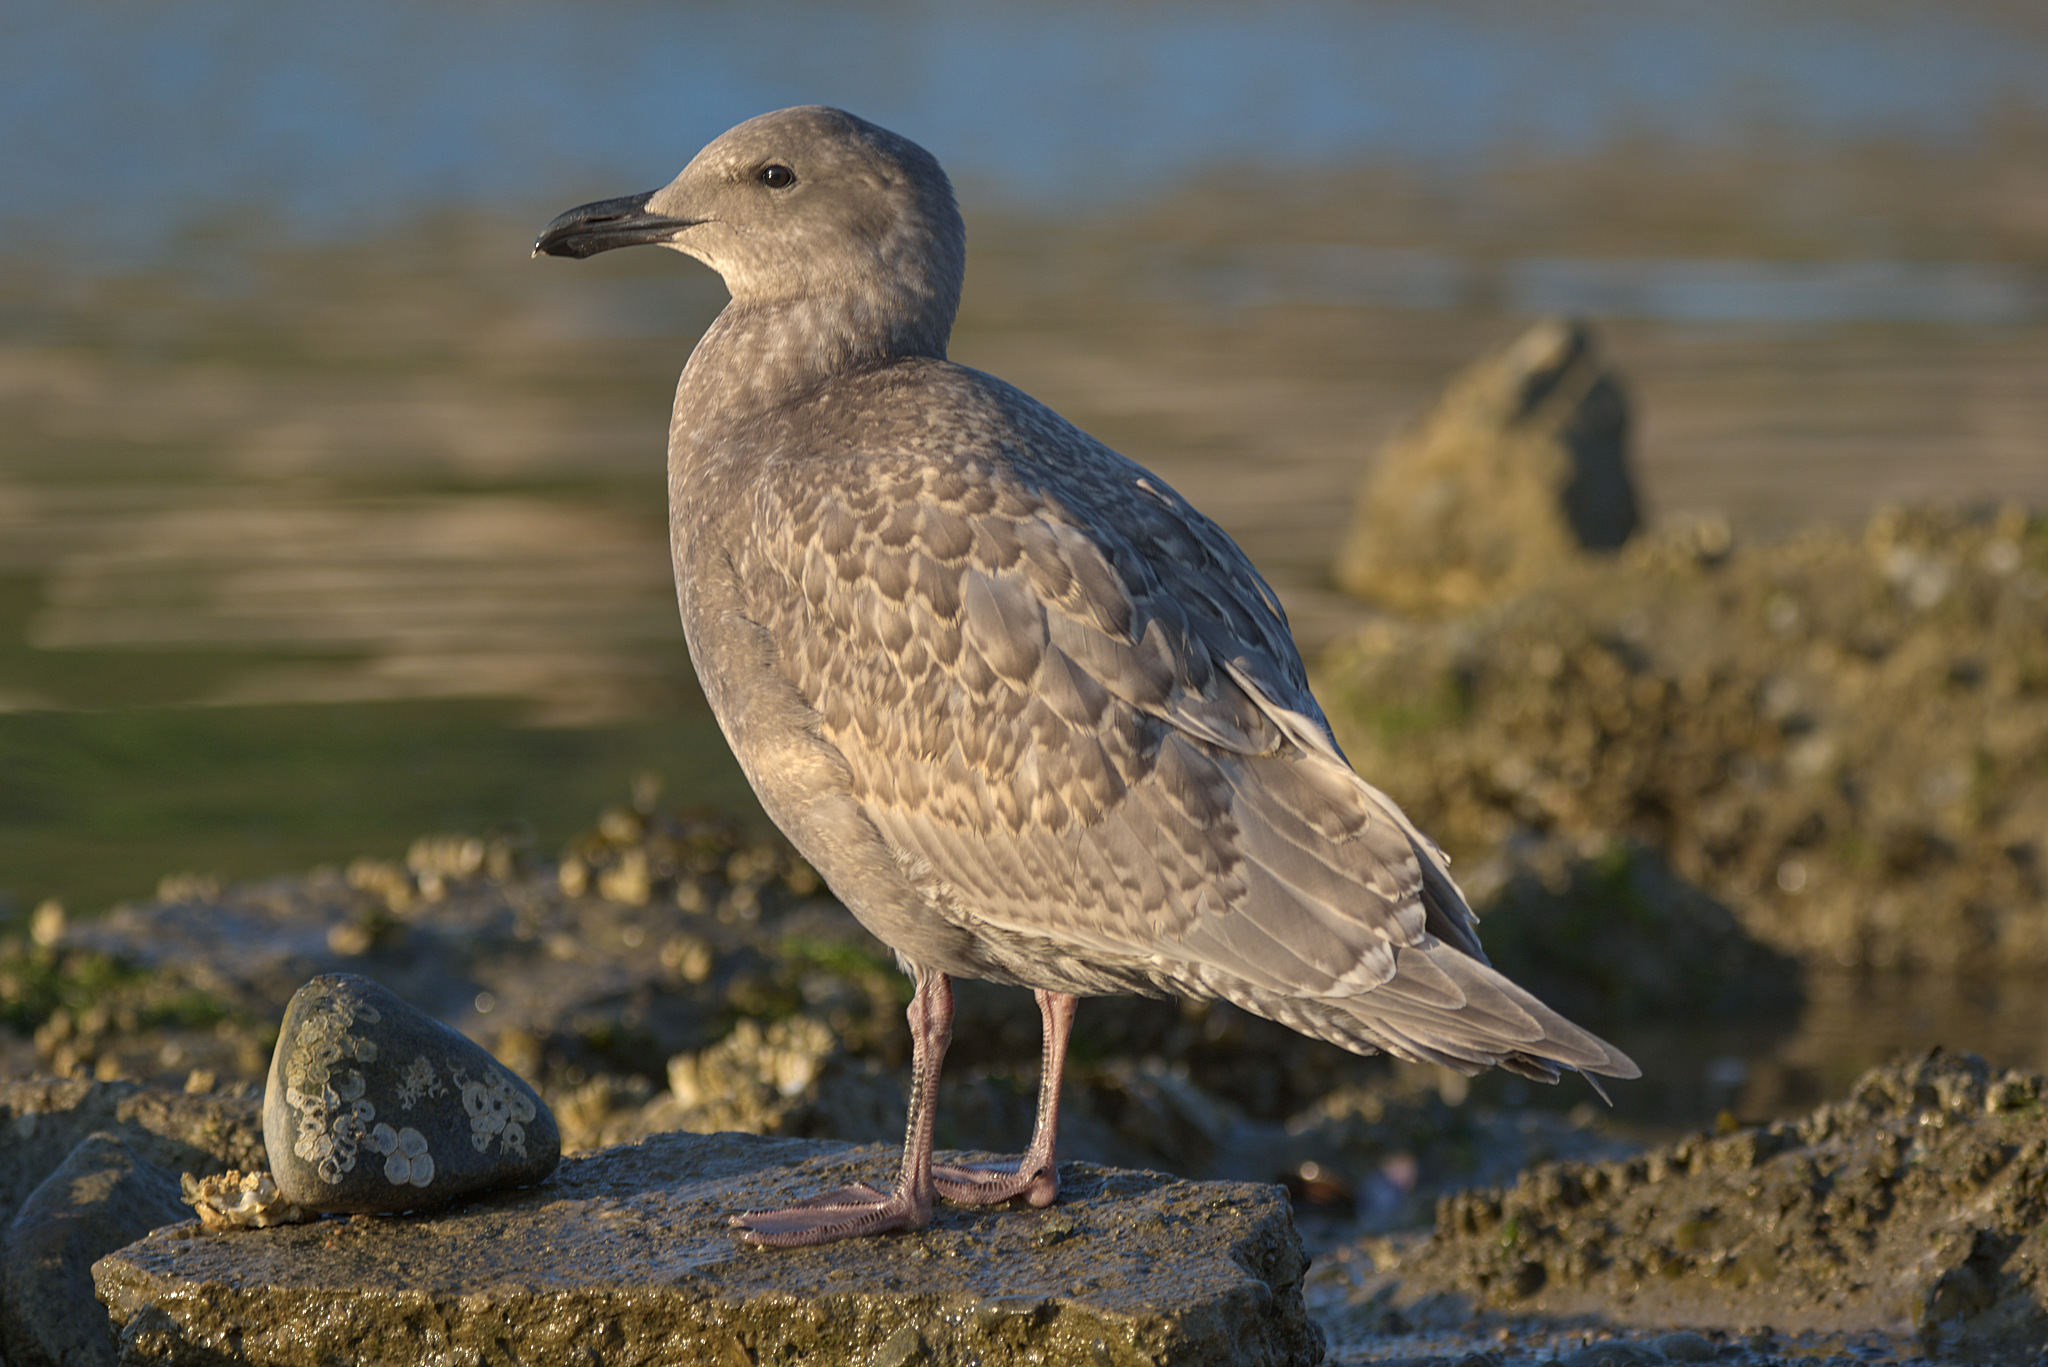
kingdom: Animalia
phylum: Chordata
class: Aves
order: Charadriiformes
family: Laridae
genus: Larus
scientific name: Larus glaucescens
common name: Glaucous-winged gull
